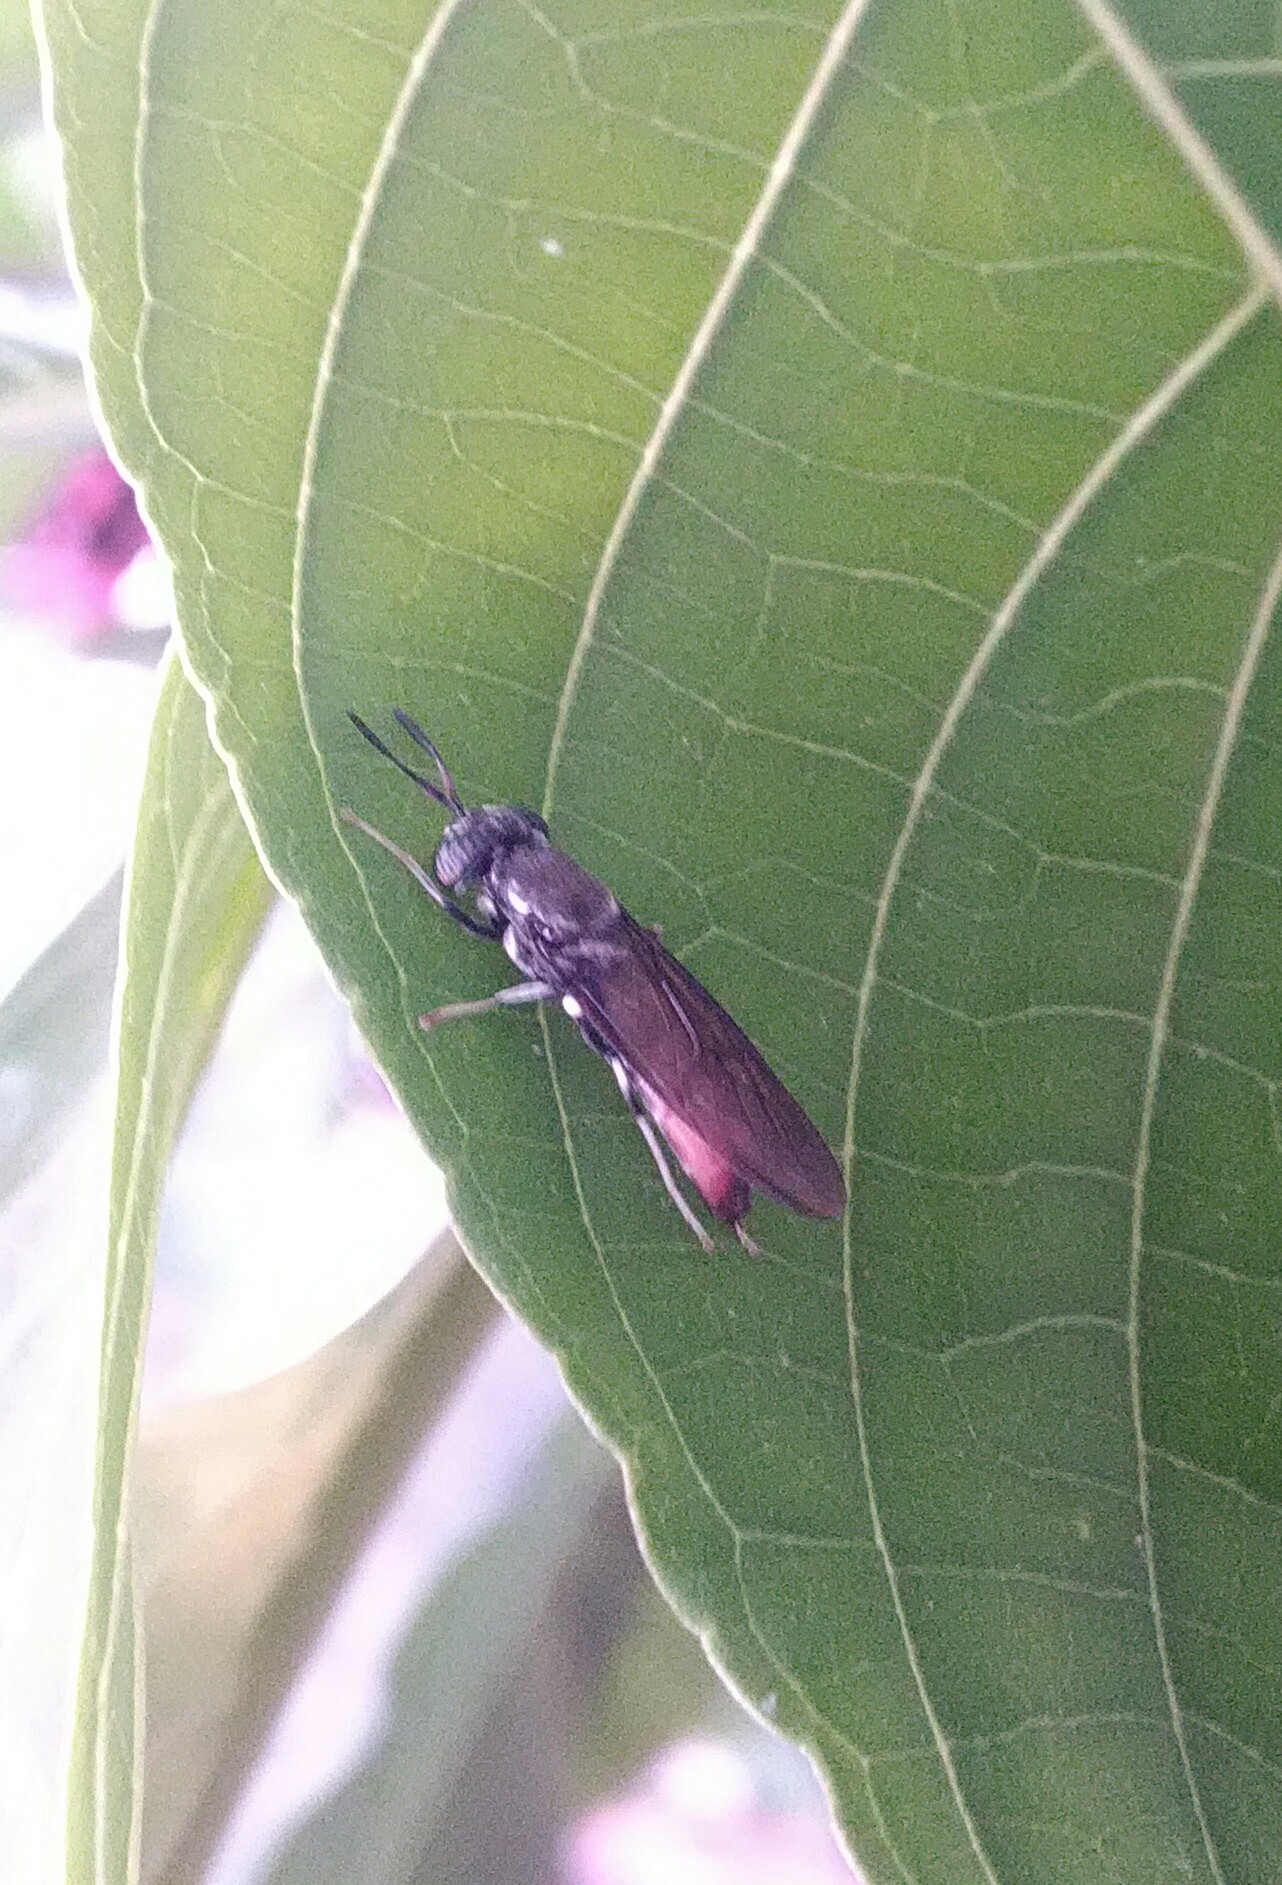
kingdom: Animalia
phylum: Arthropoda
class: Insecta
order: Diptera
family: Stratiomyidae
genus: Hermetia
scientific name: Hermetia illucens
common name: Black soldier fly
